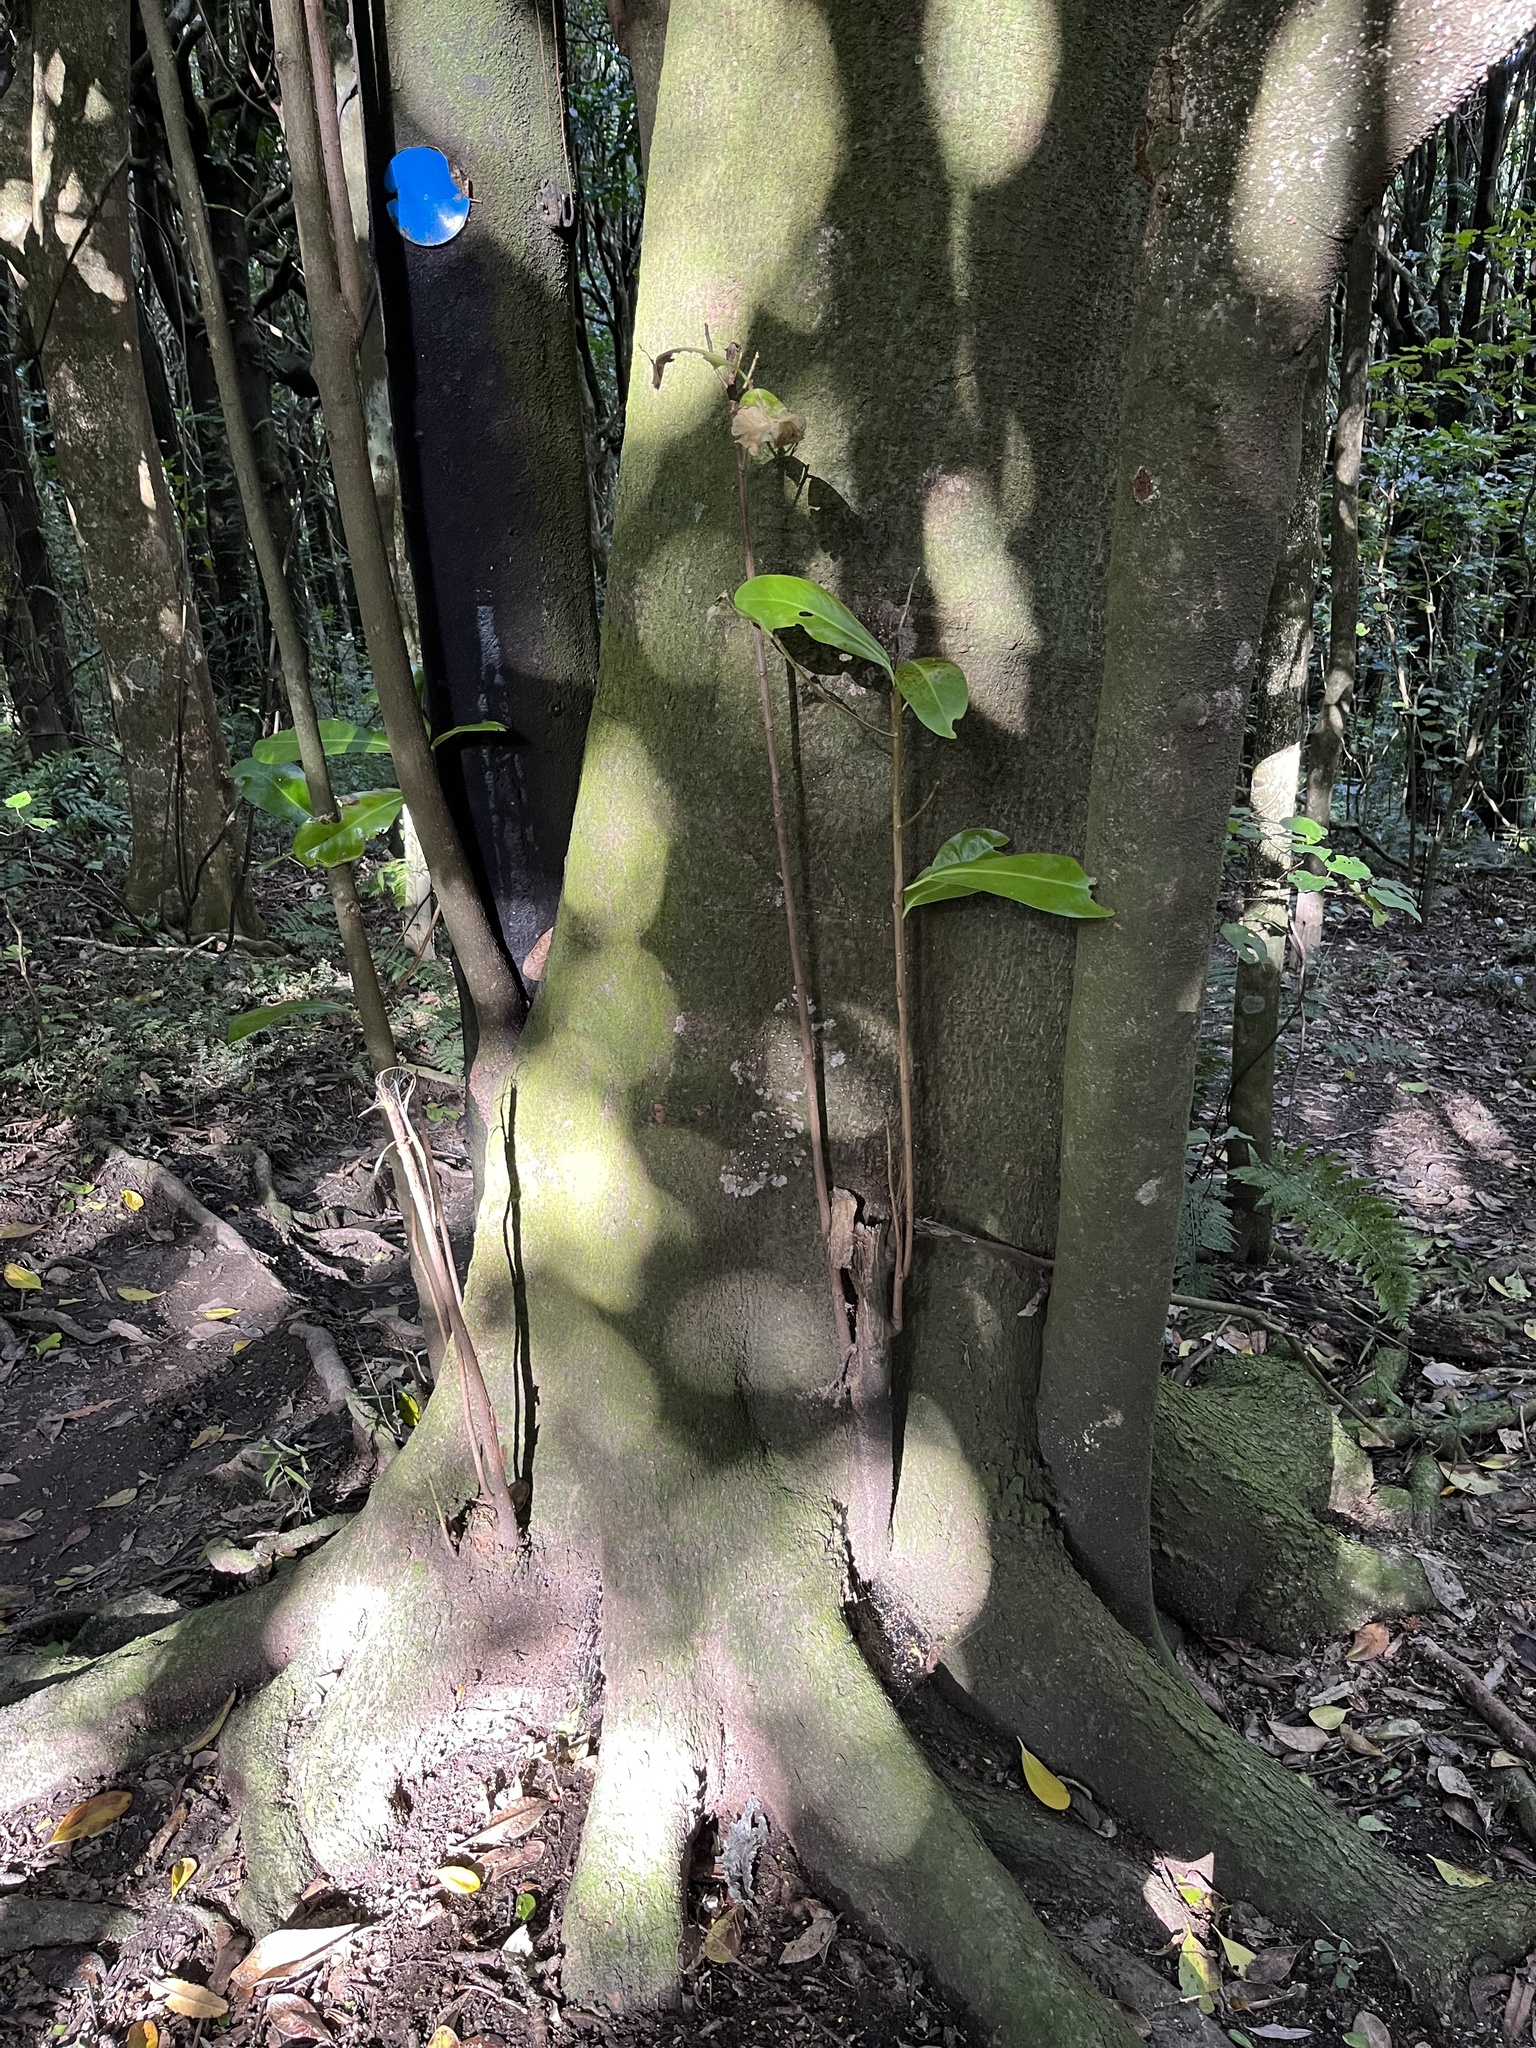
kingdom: Plantae
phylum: Tracheophyta
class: Magnoliopsida
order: Cucurbitales
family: Corynocarpaceae
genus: Corynocarpus
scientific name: Corynocarpus laevigatus
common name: New zealand laurel
